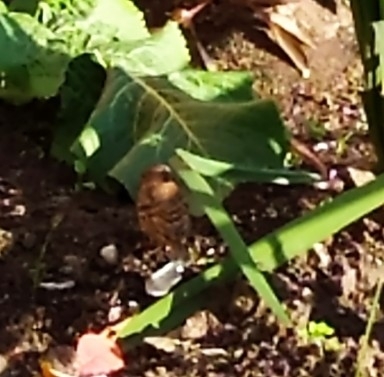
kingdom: Animalia
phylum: Chordata
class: Aves
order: Passeriformes
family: Fringillidae
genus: Fringilla
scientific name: Fringilla montifringilla
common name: Brambling
